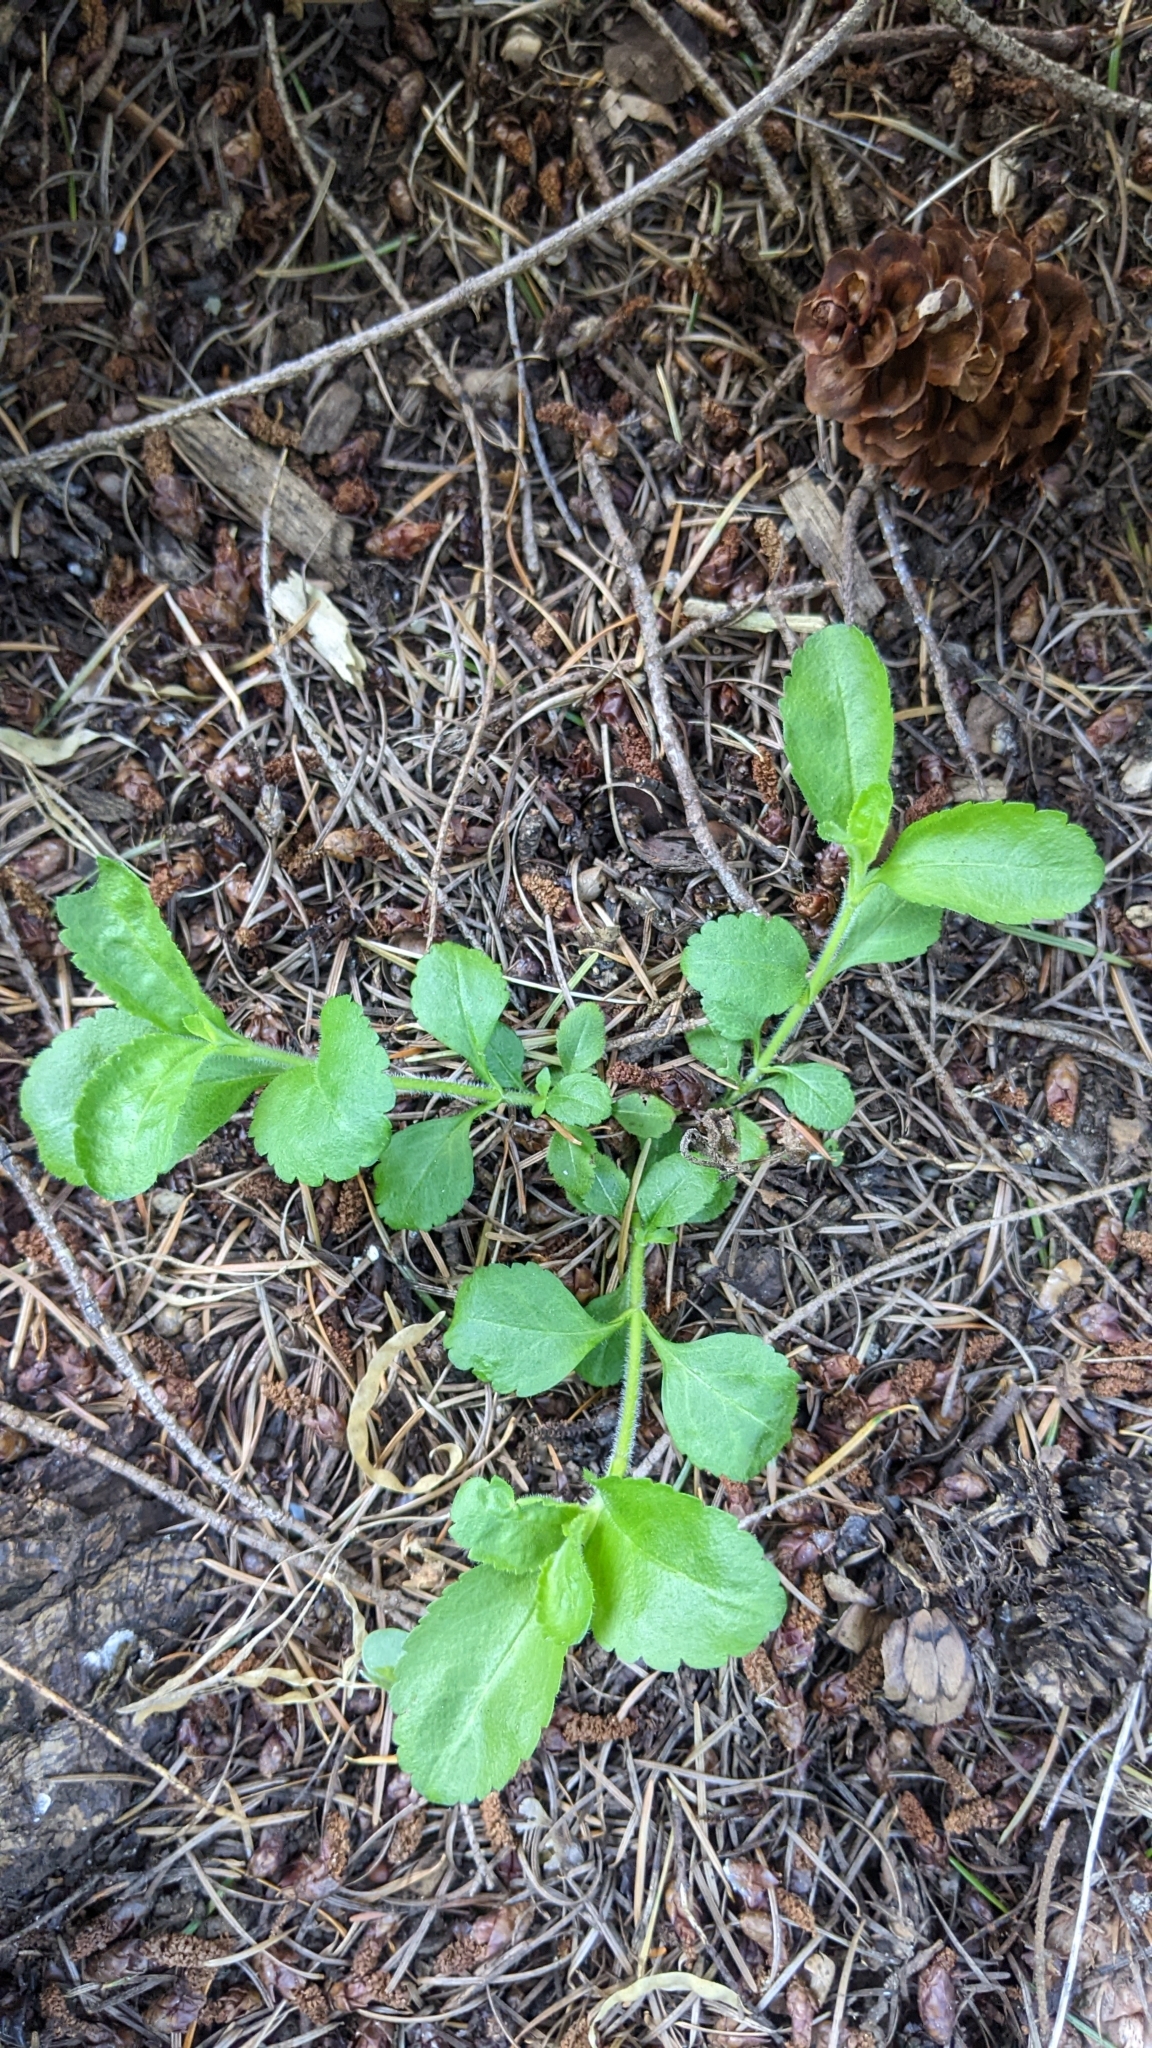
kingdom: Plantae
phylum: Tracheophyta
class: Magnoliopsida
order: Lamiales
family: Plantaginaceae
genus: Veronica
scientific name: Veronica officinalis
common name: Common speedwell
